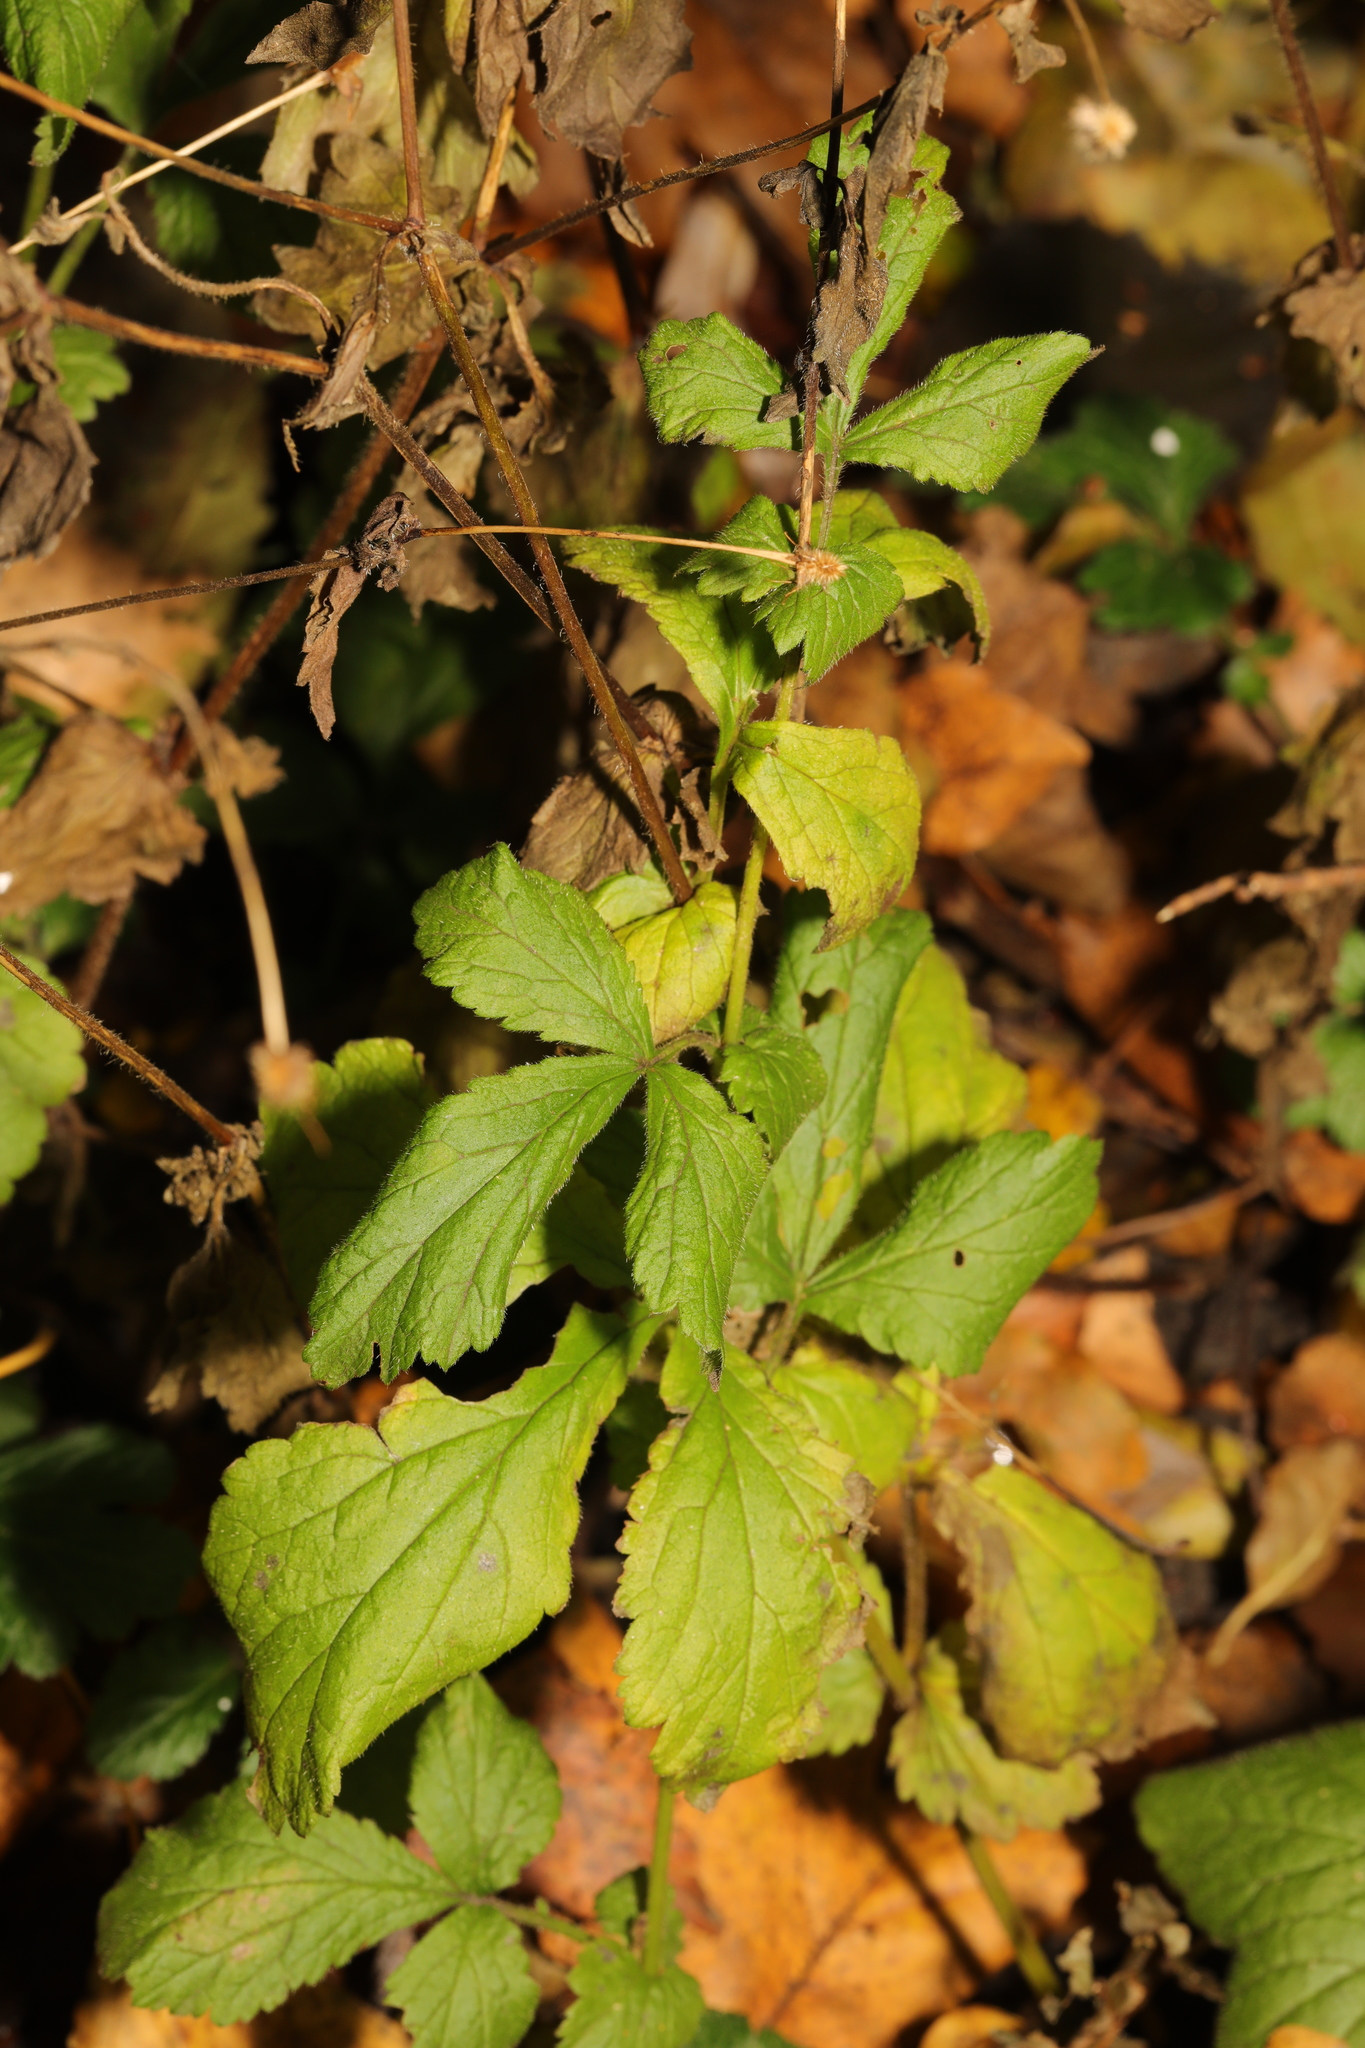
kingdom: Plantae
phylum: Tracheophyta
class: Magnoliopsida
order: Rosales
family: Rosaceae
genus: Geum
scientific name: Geum urbanum
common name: Wood avens
